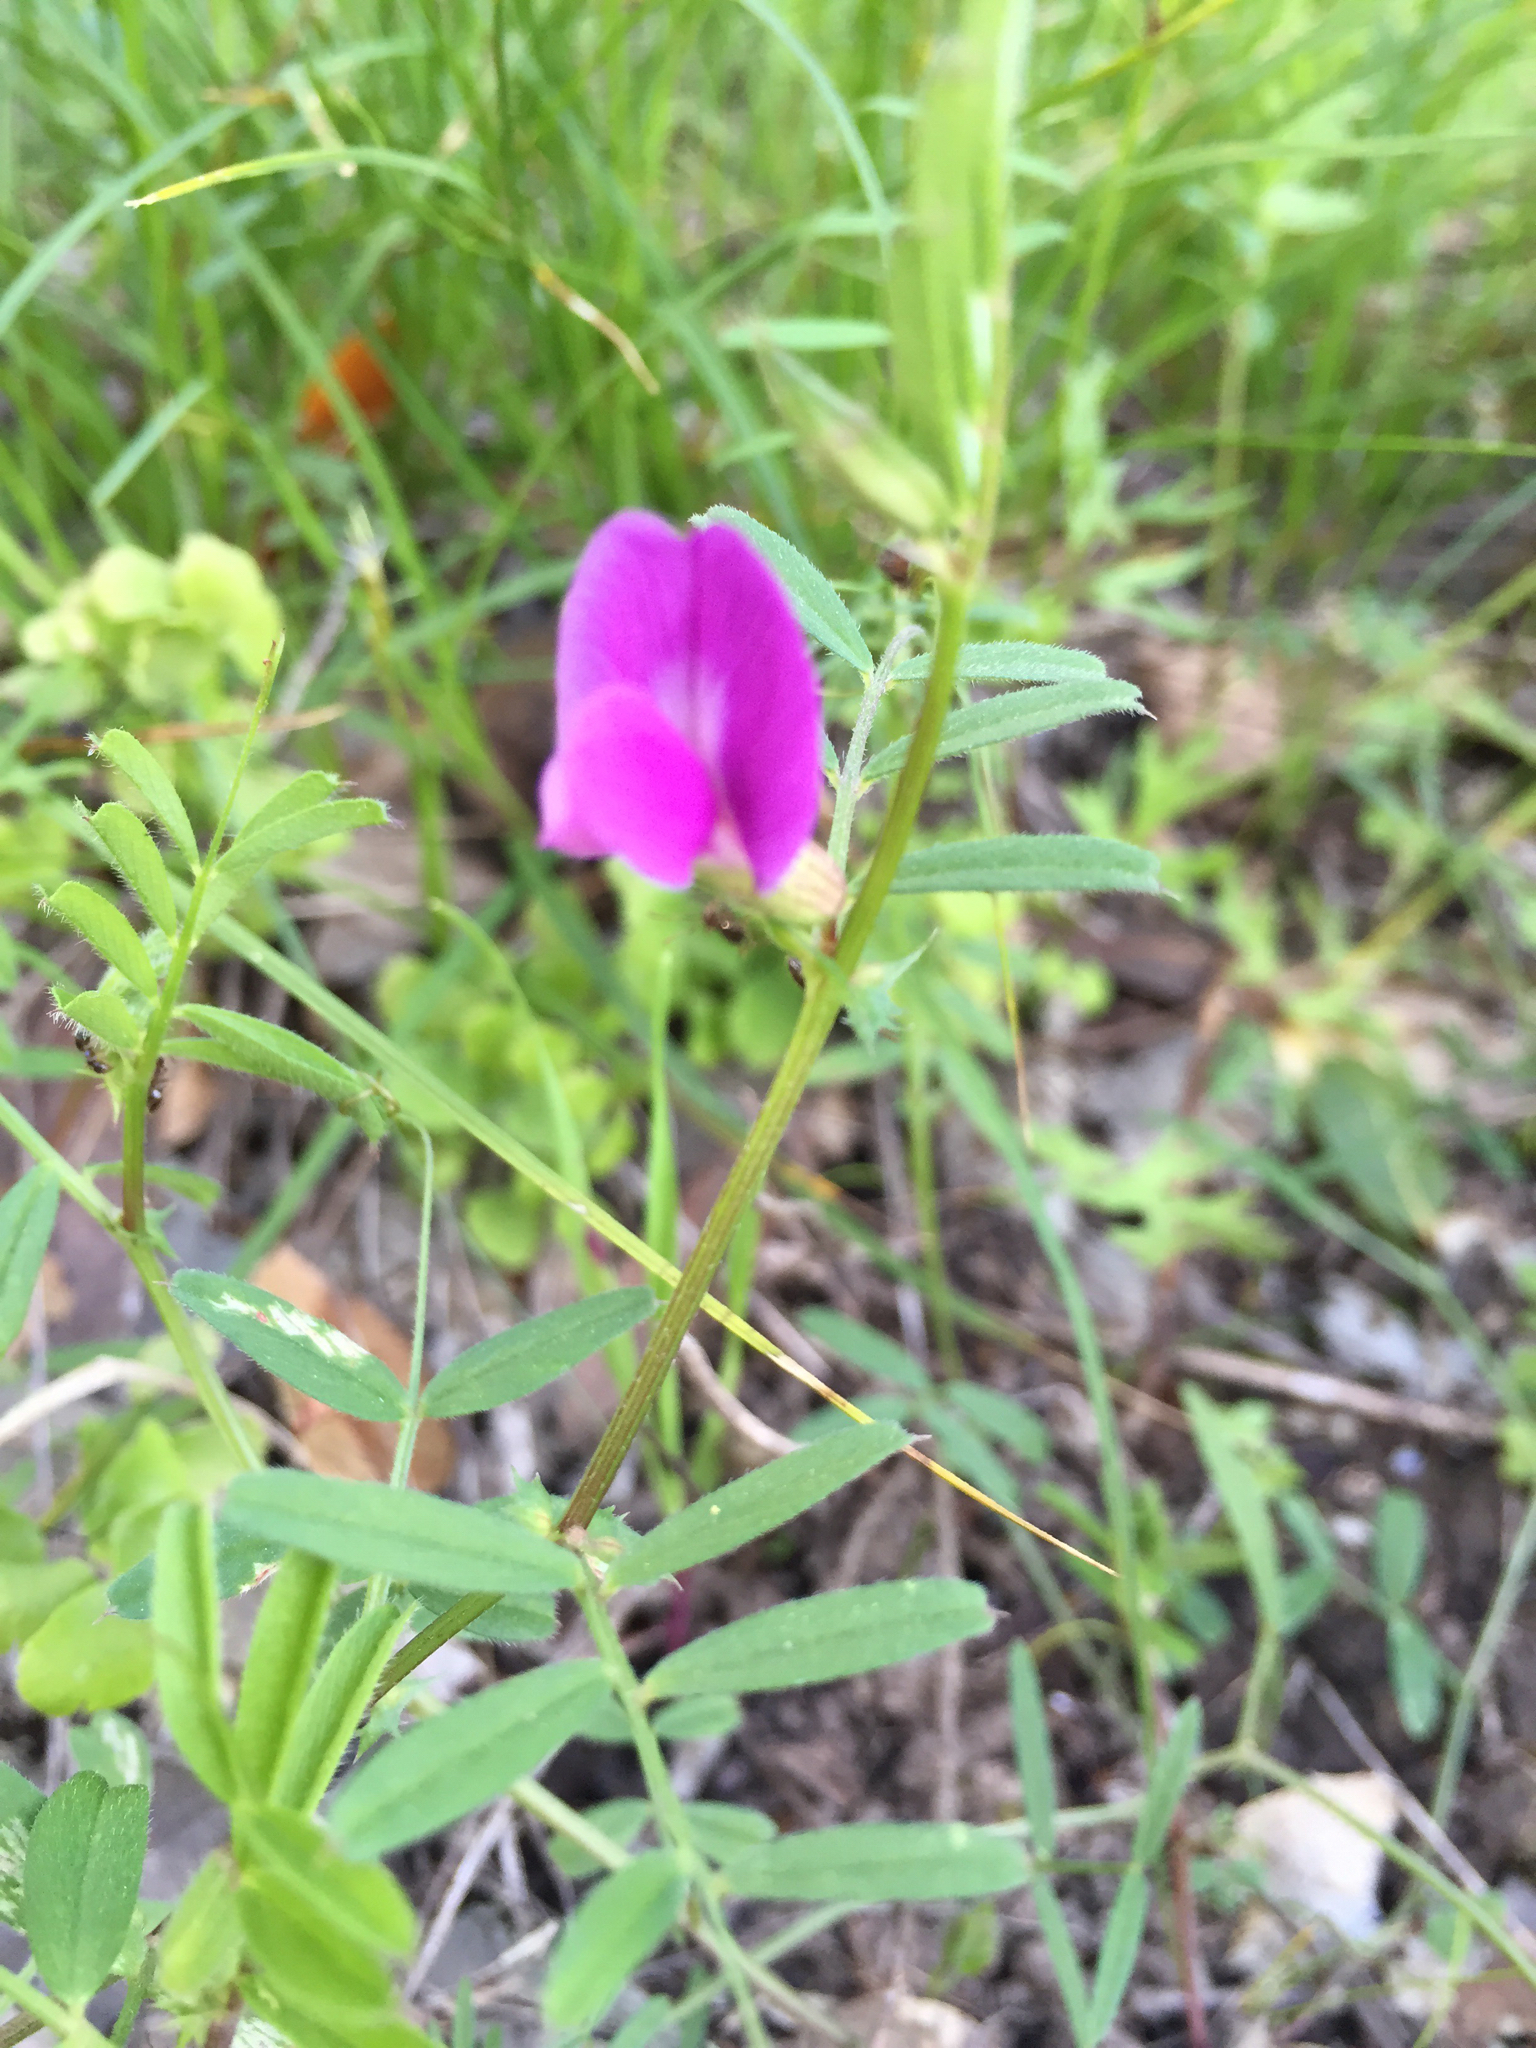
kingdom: Plantae
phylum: Tracheophyta
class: Magnoliopsida
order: Fabales
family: Fabaceae
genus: Vicia
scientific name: Vicia sativa
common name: Garden vetch
